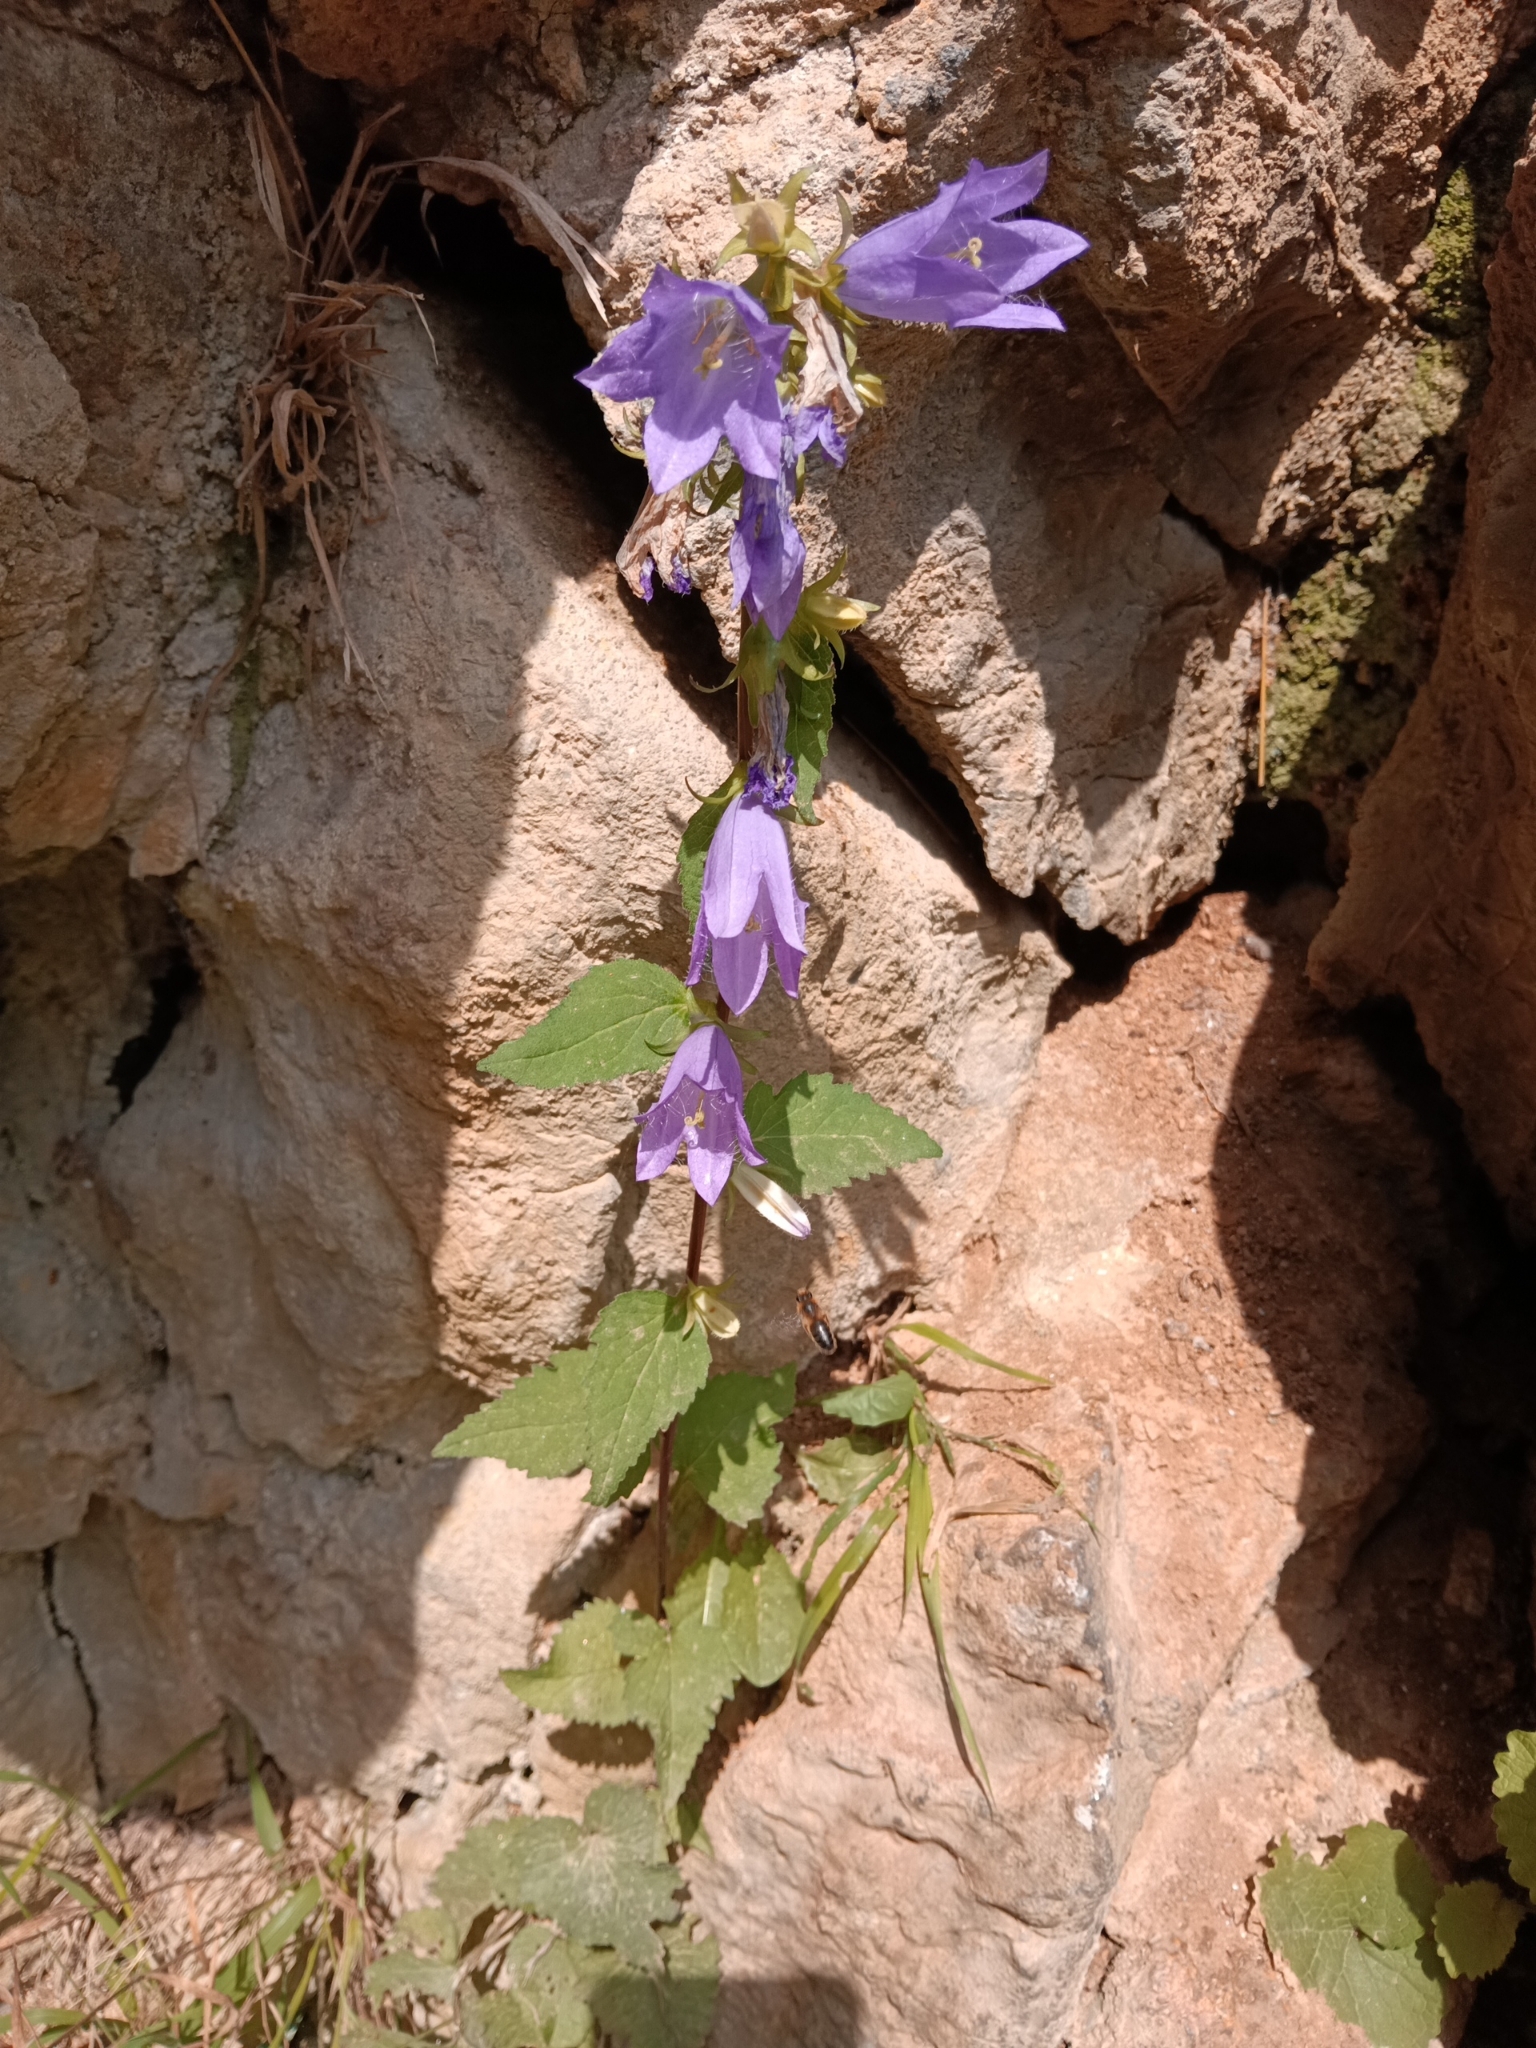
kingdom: Plantae
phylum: Tracheophyta
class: Magnoliopsida
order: Asterales
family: Campanulaceae
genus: Campanula
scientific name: Campanula trachelium
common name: Nettle-leaved bellflower
